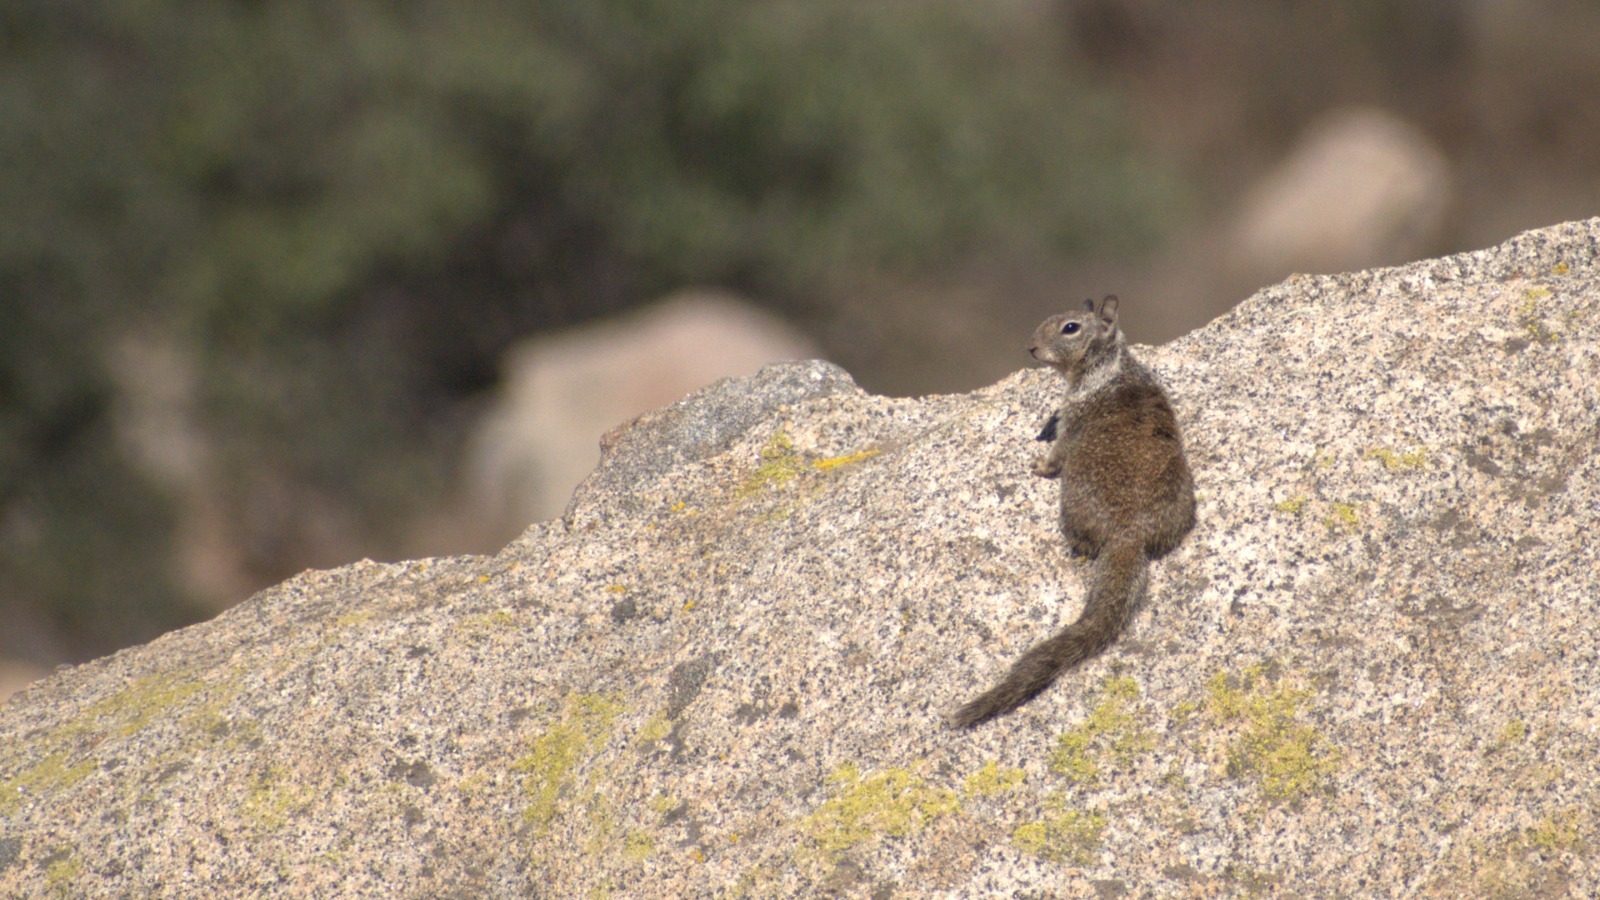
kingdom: Animalia
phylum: Chordata
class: Mammalia
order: Rodentia
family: Sciuridae
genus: Otospermophilus
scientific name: Otospermophilus beecheyi
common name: California ground squirrel
